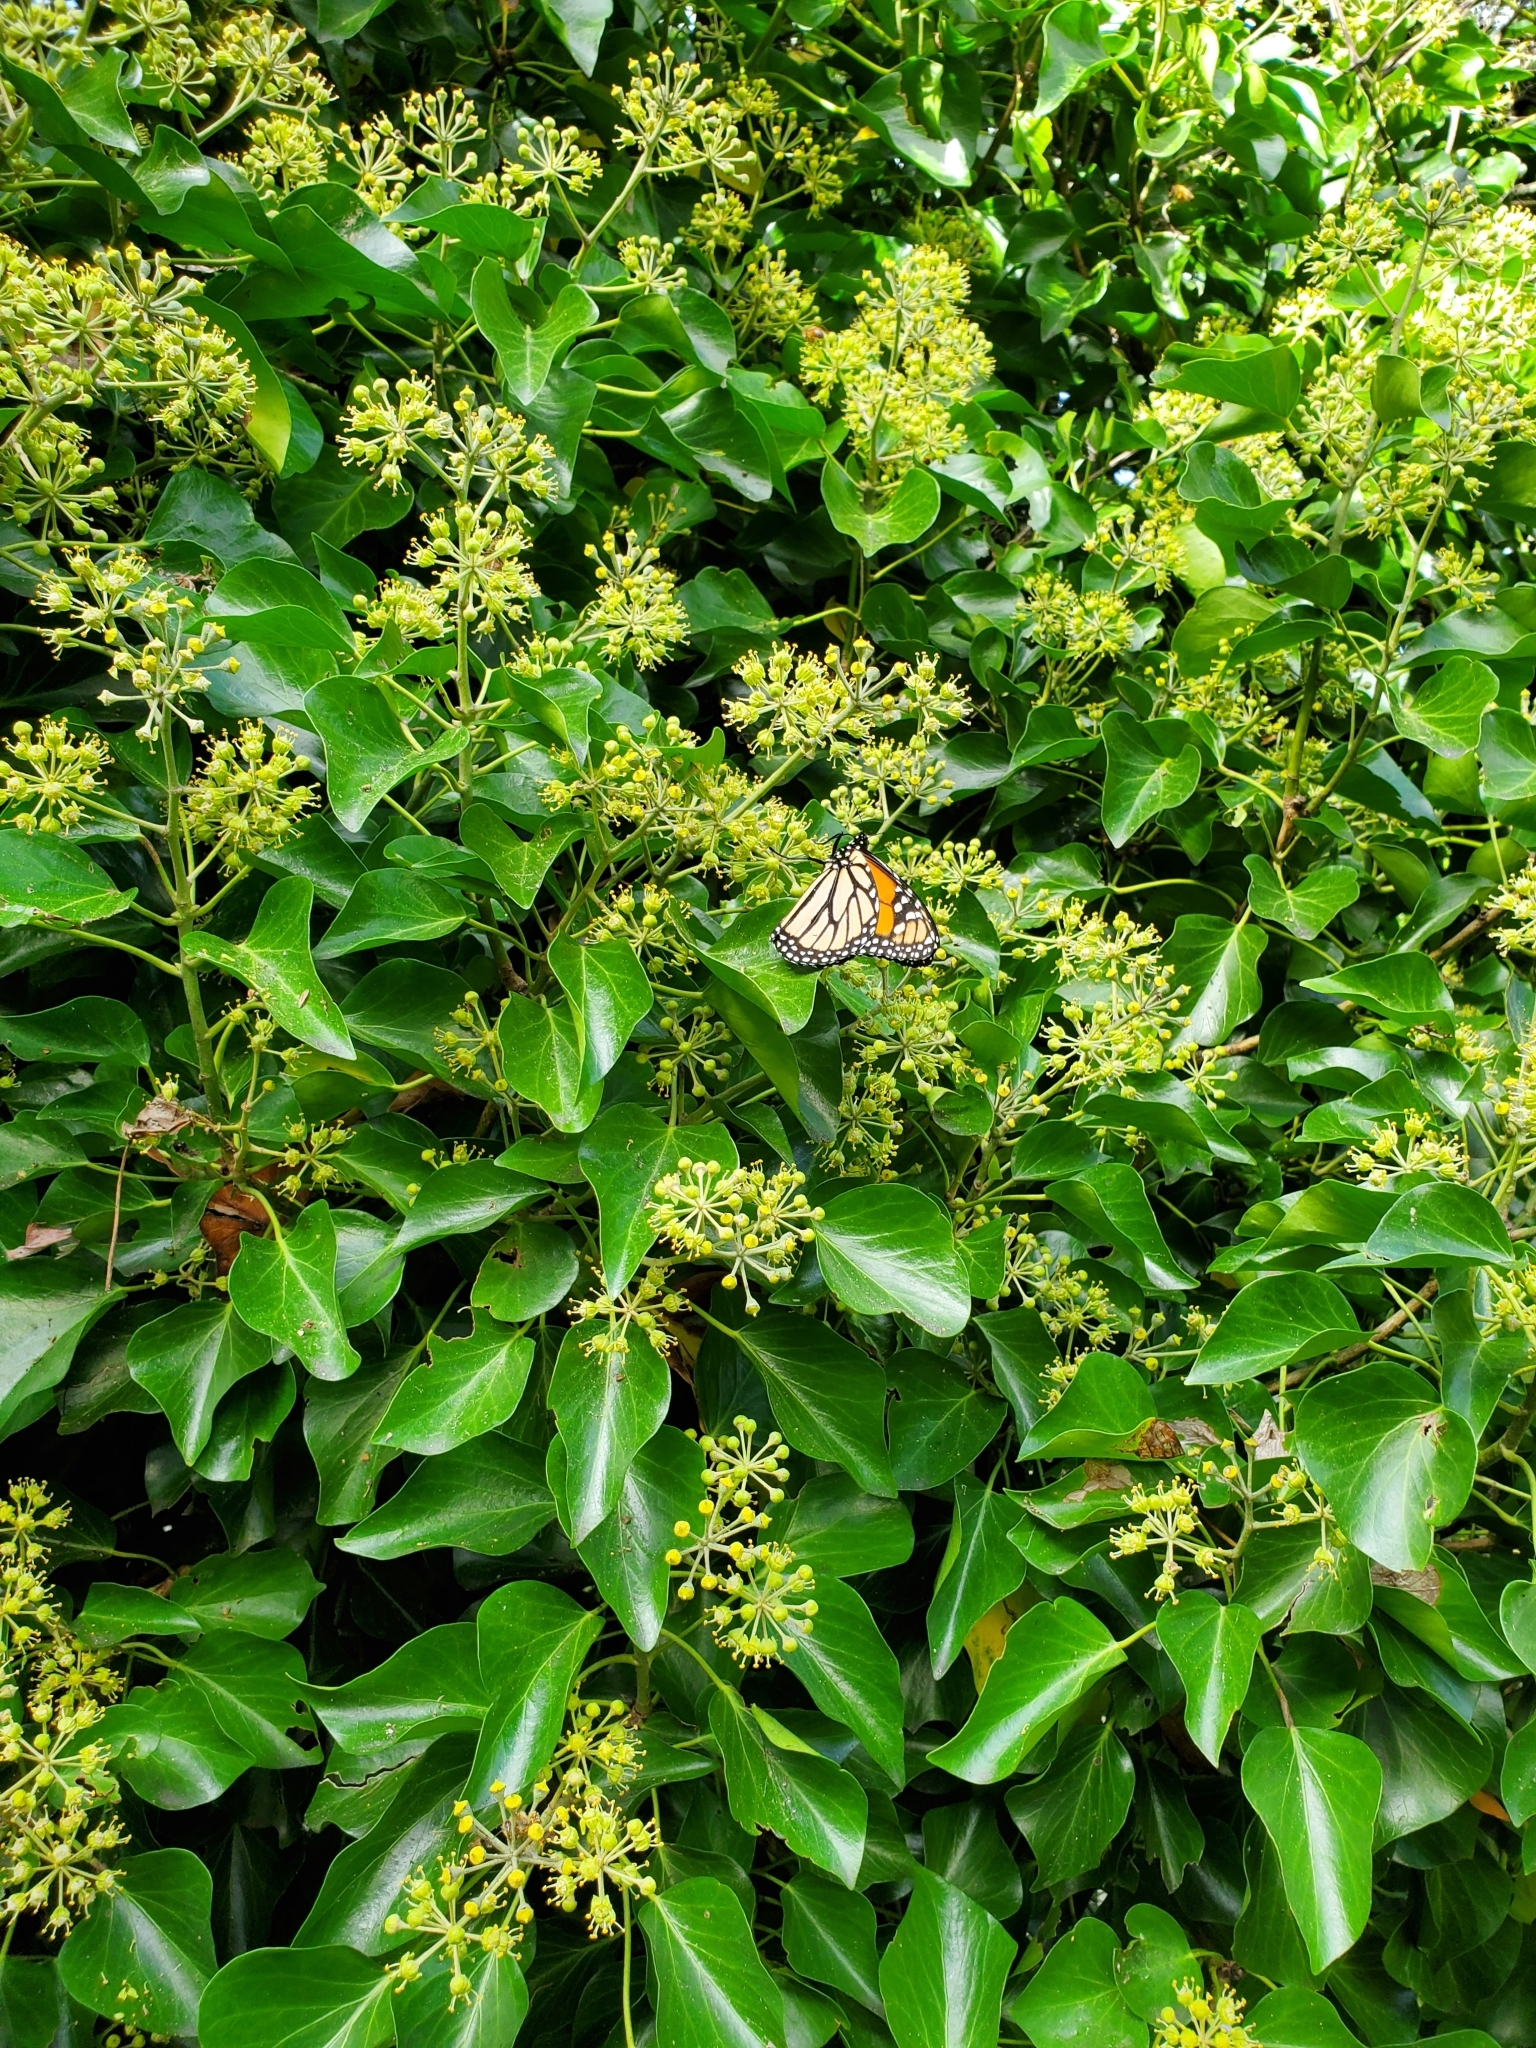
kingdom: Animalia
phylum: Arthropoda
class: Insecta
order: Lepidoptera
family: Nymphalidae
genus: Danaus
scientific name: Danaus plexippus
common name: Monarch
